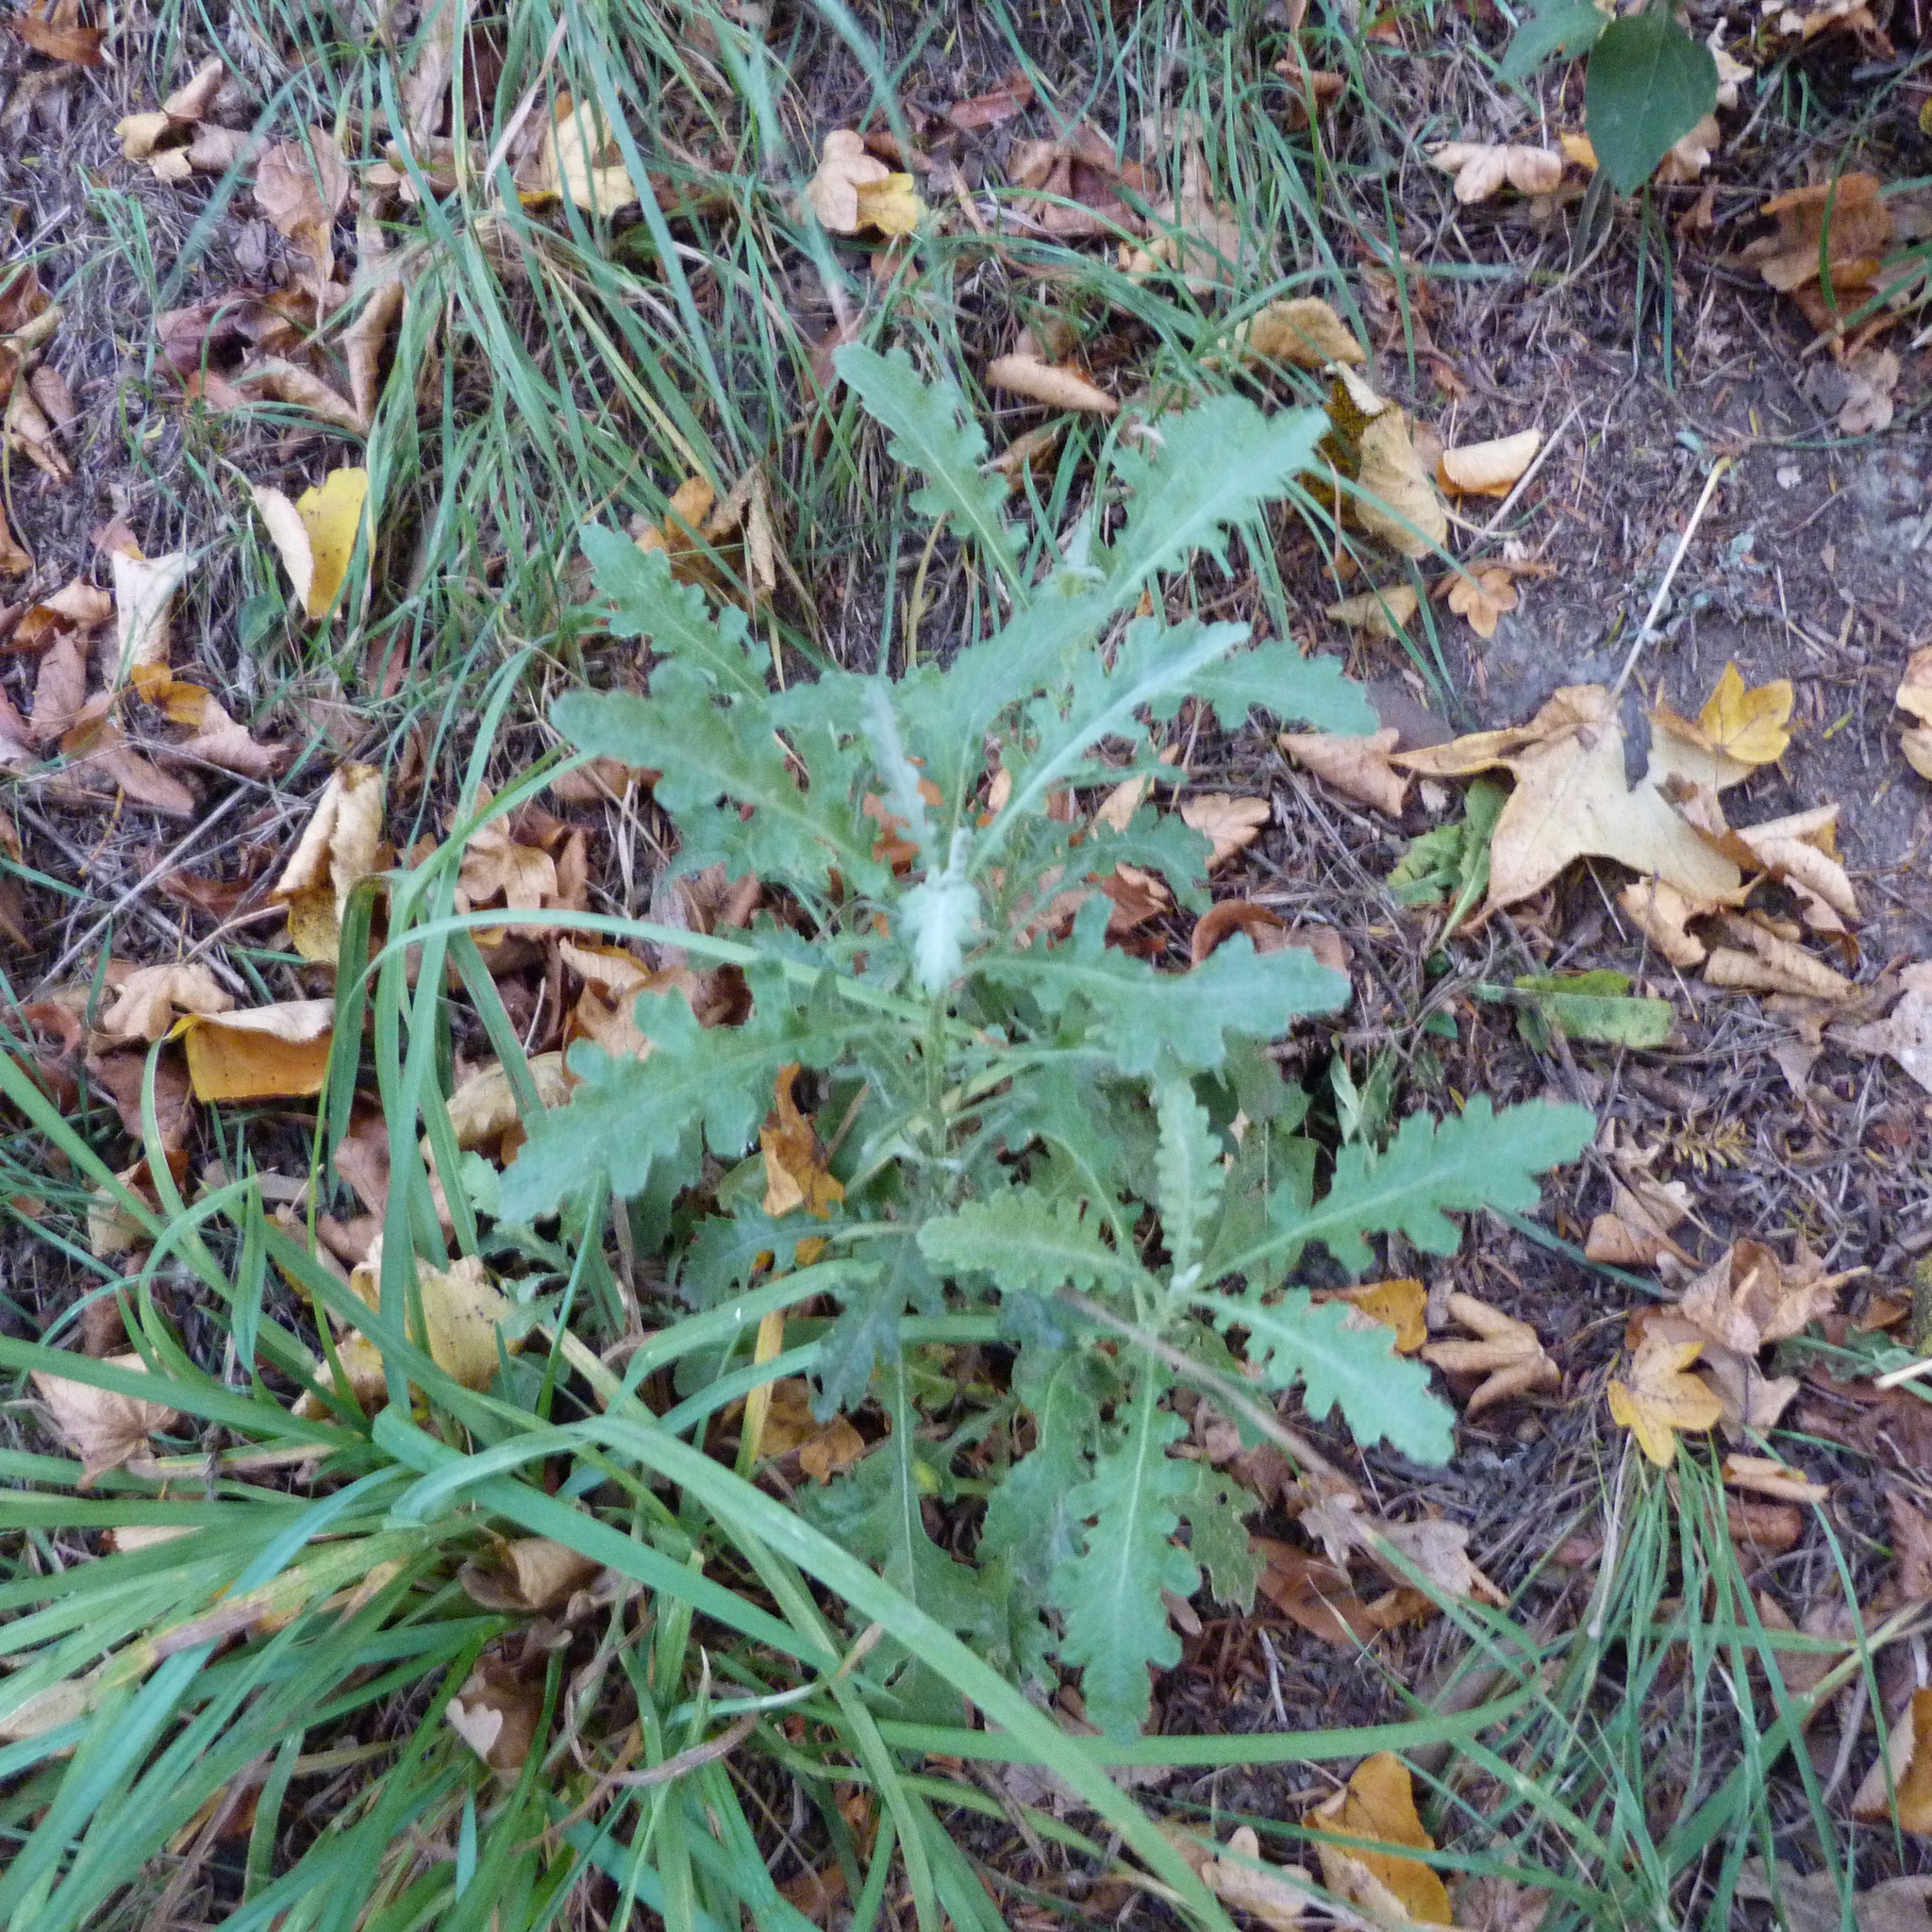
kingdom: Plantae
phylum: Tracheophyta
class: Magnoliopsida
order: Asterales
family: Asteraceae
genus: Senecio
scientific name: Senecio glomeratus
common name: Cutleaf burnweed
